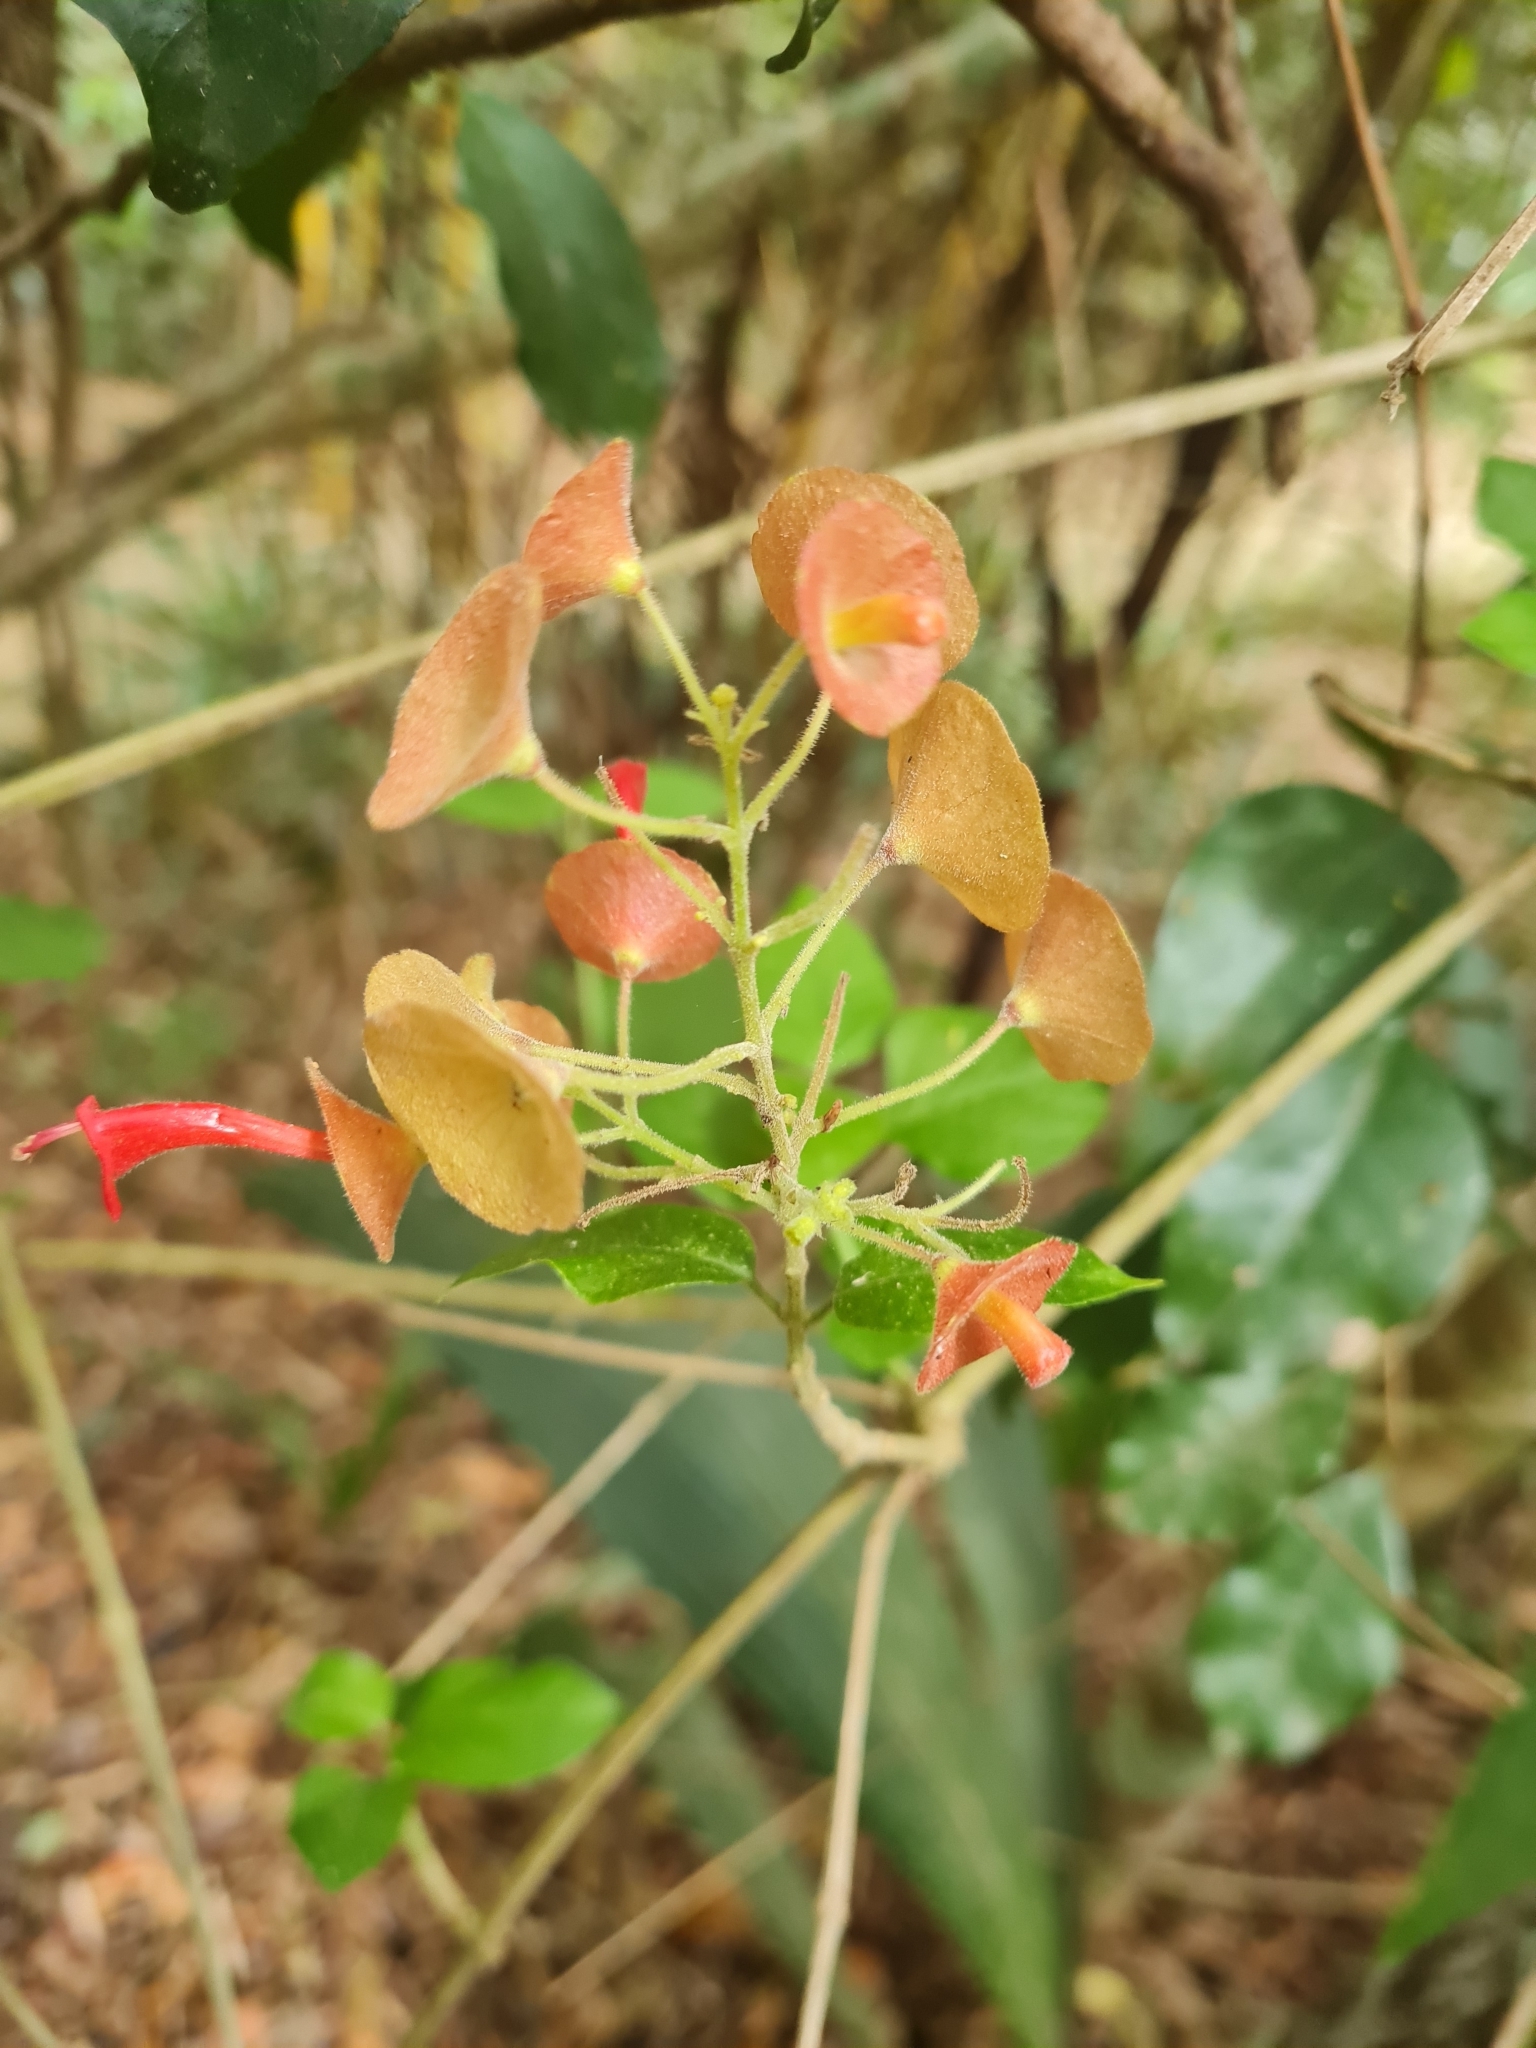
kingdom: Plantae
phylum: Tracheophyta
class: Magnoliopsida
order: Lamiales
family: Lamiaceae
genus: Holmskioldia
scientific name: Holmskioldia sanguinea
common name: Chinese hatplant
